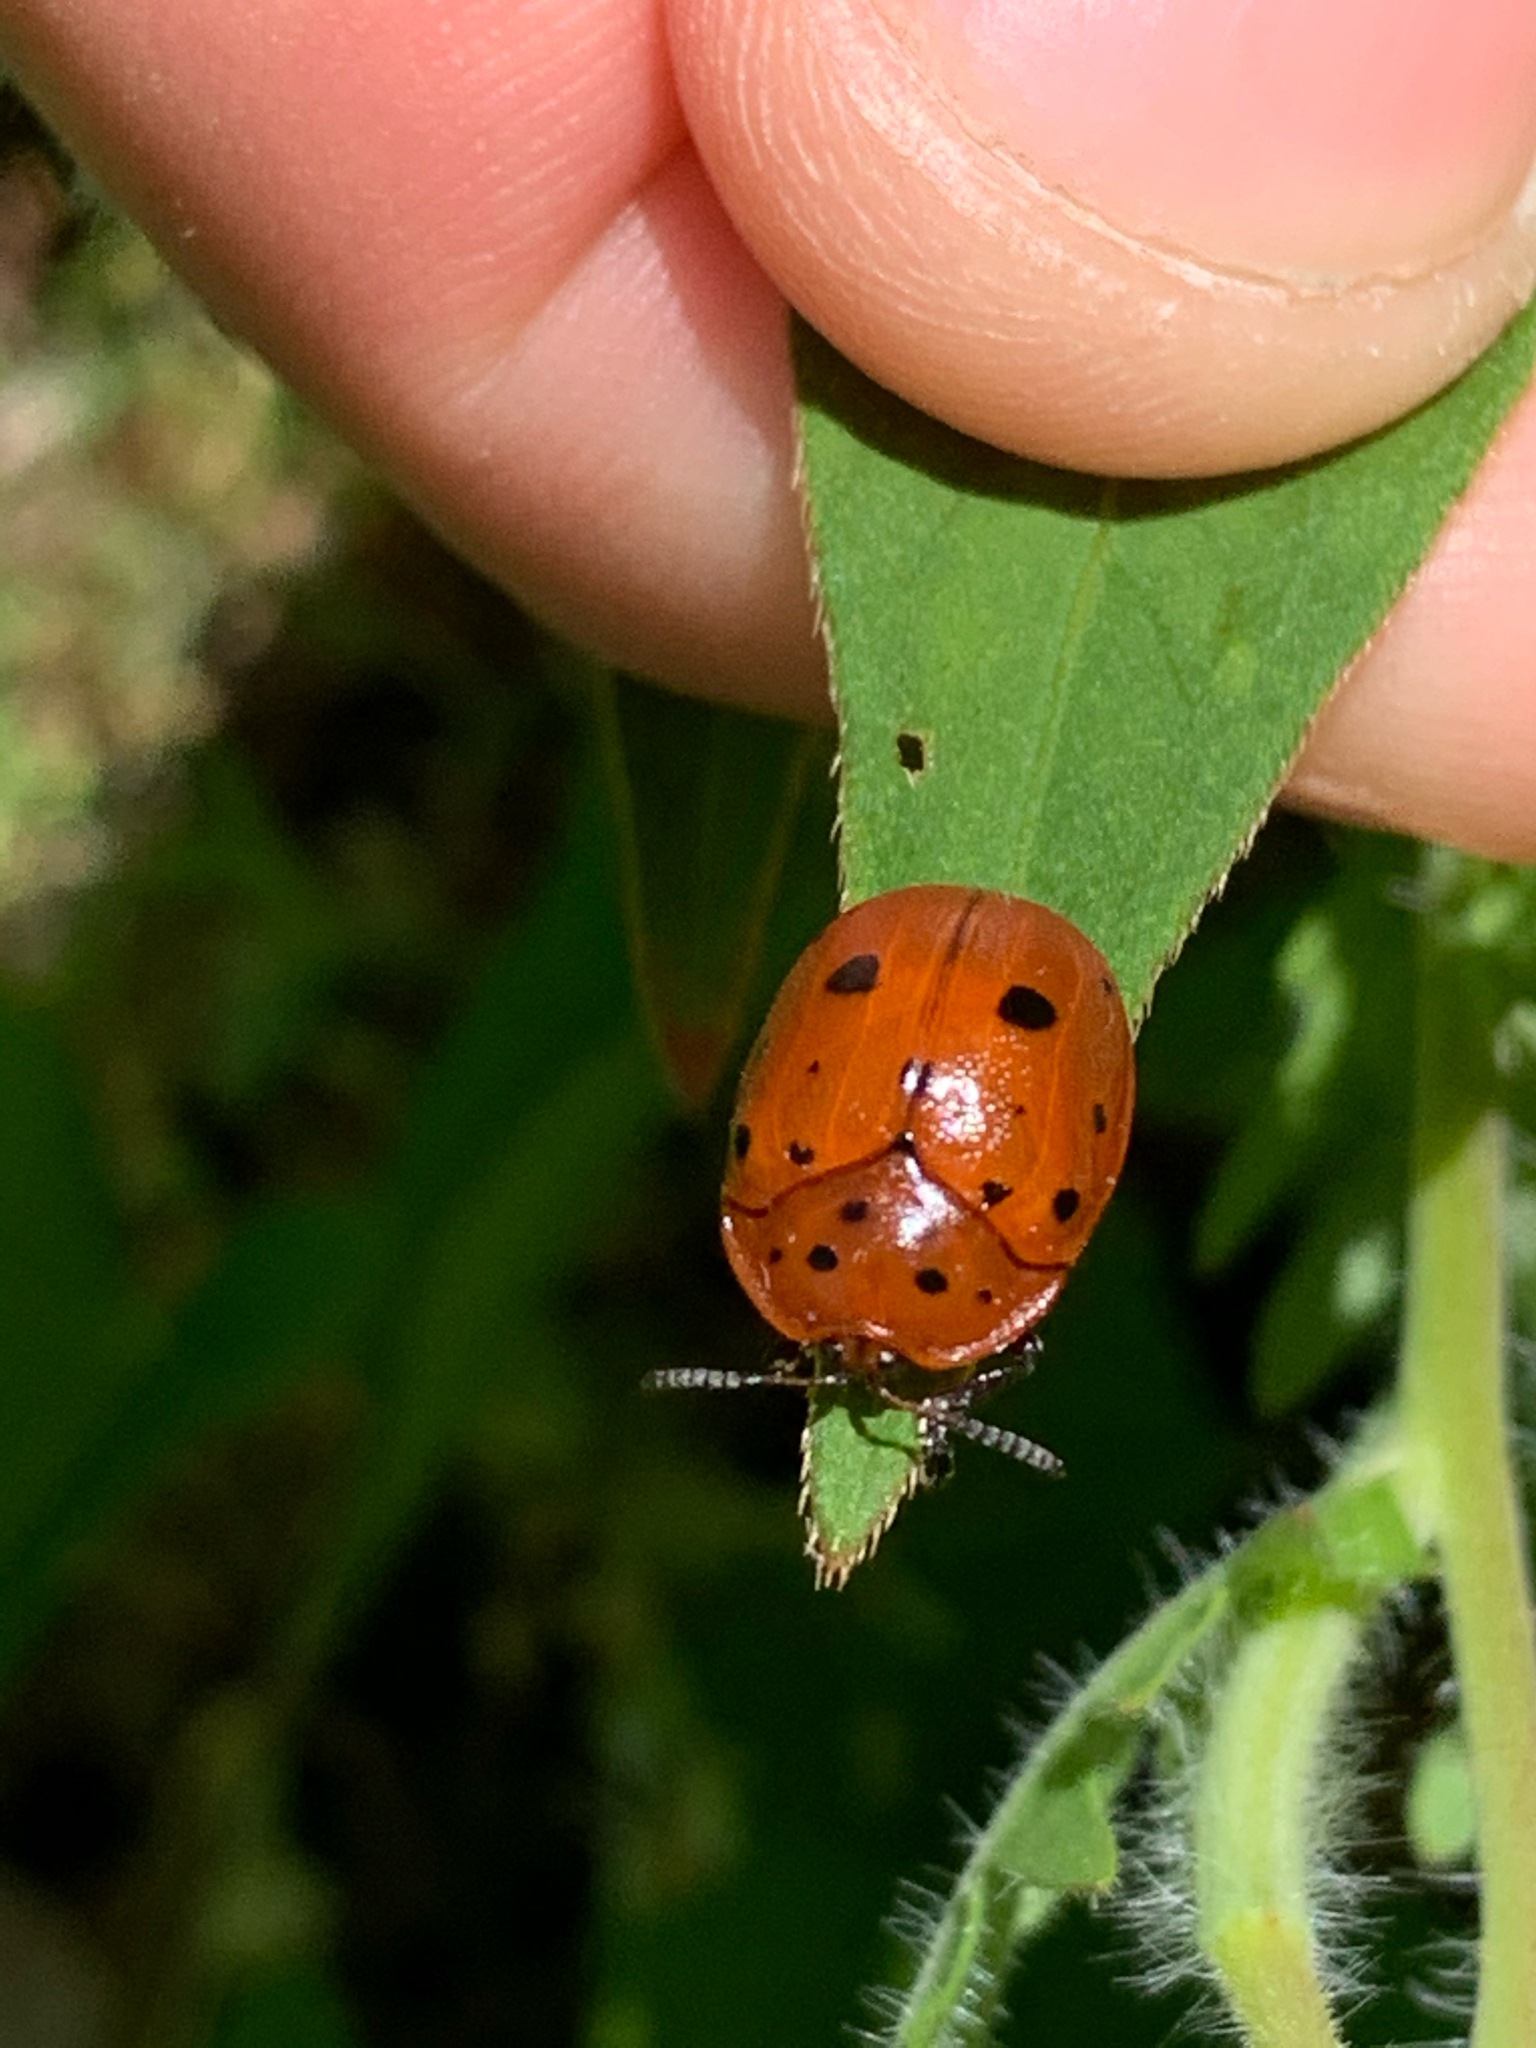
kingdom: Animalia
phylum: Arthropoda
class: Insecta
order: Coleoptera
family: Chrysomelidae
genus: Chelymorpha
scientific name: Chelymorpha cassidea
